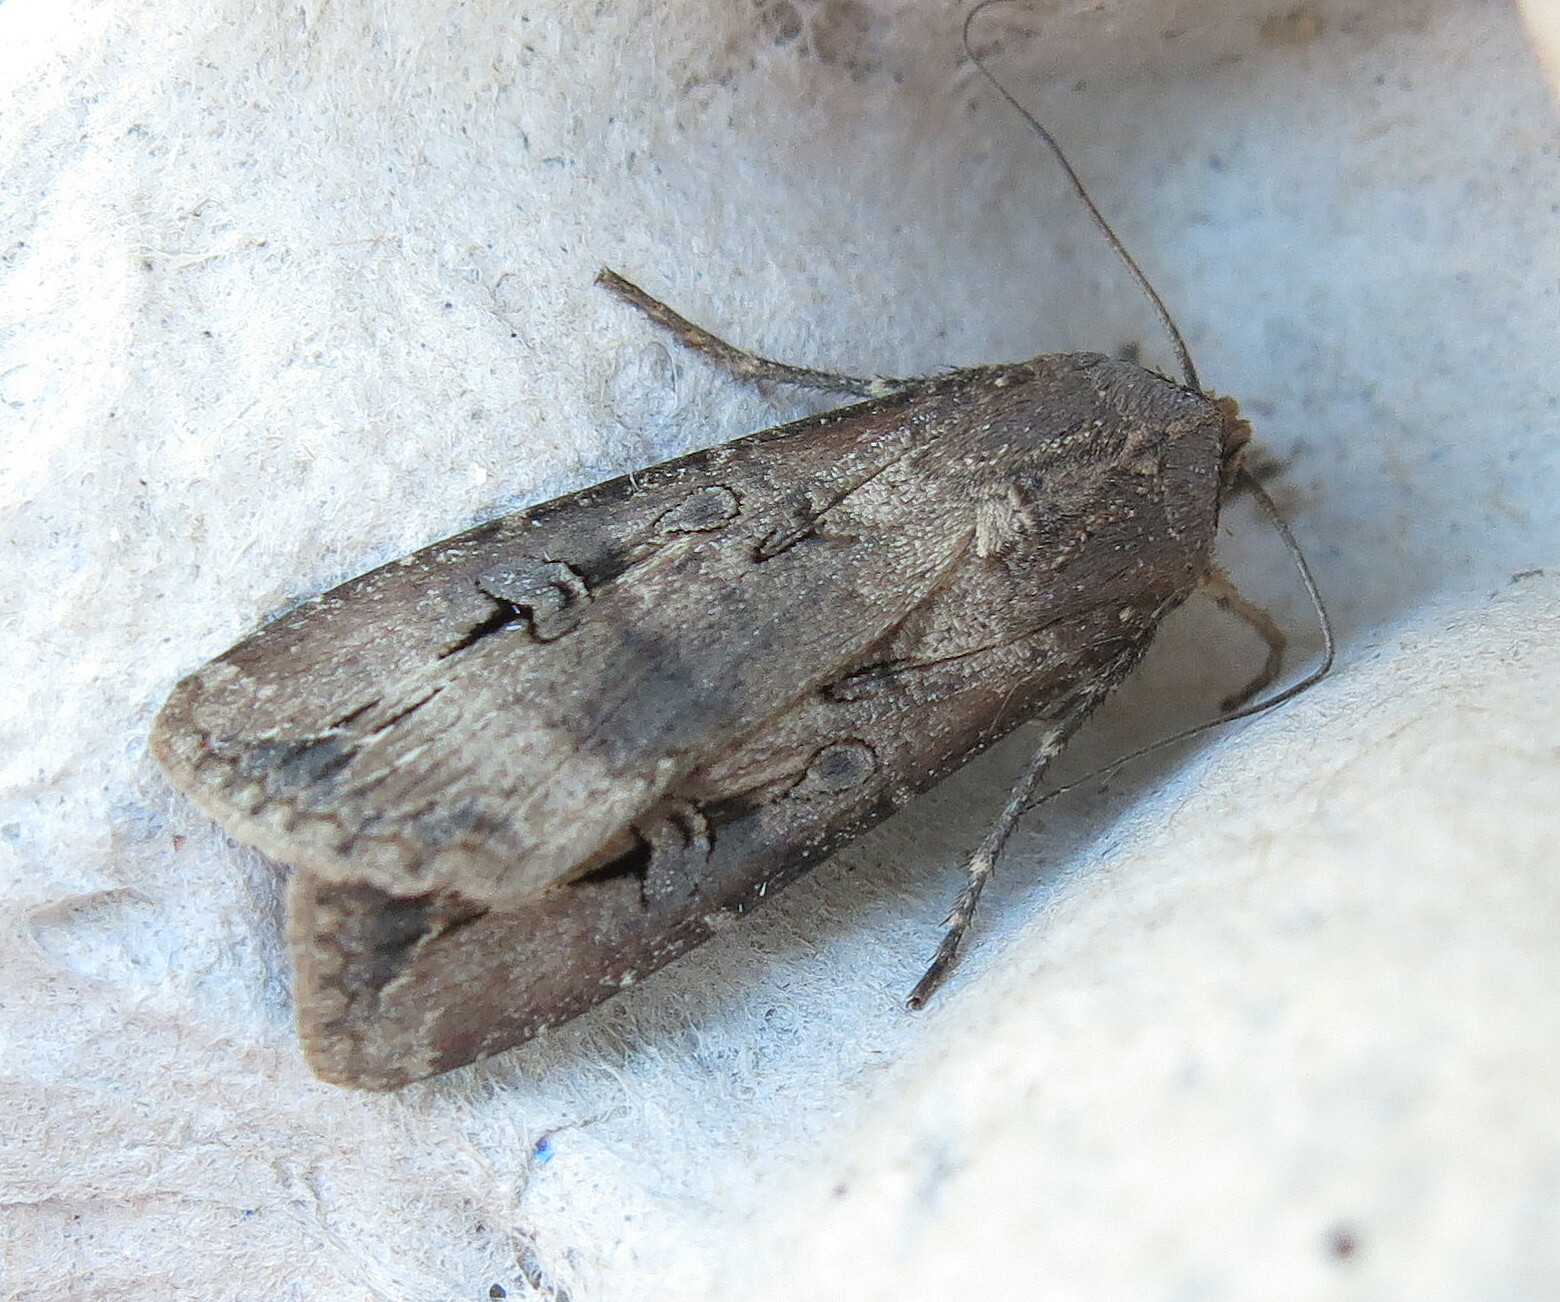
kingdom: Animalia
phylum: Arthropoda
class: Insecta
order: Lepidoptera
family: Noctuidae
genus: Agrotis
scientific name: Agrotis ipsilon
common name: Dark sword-grass
